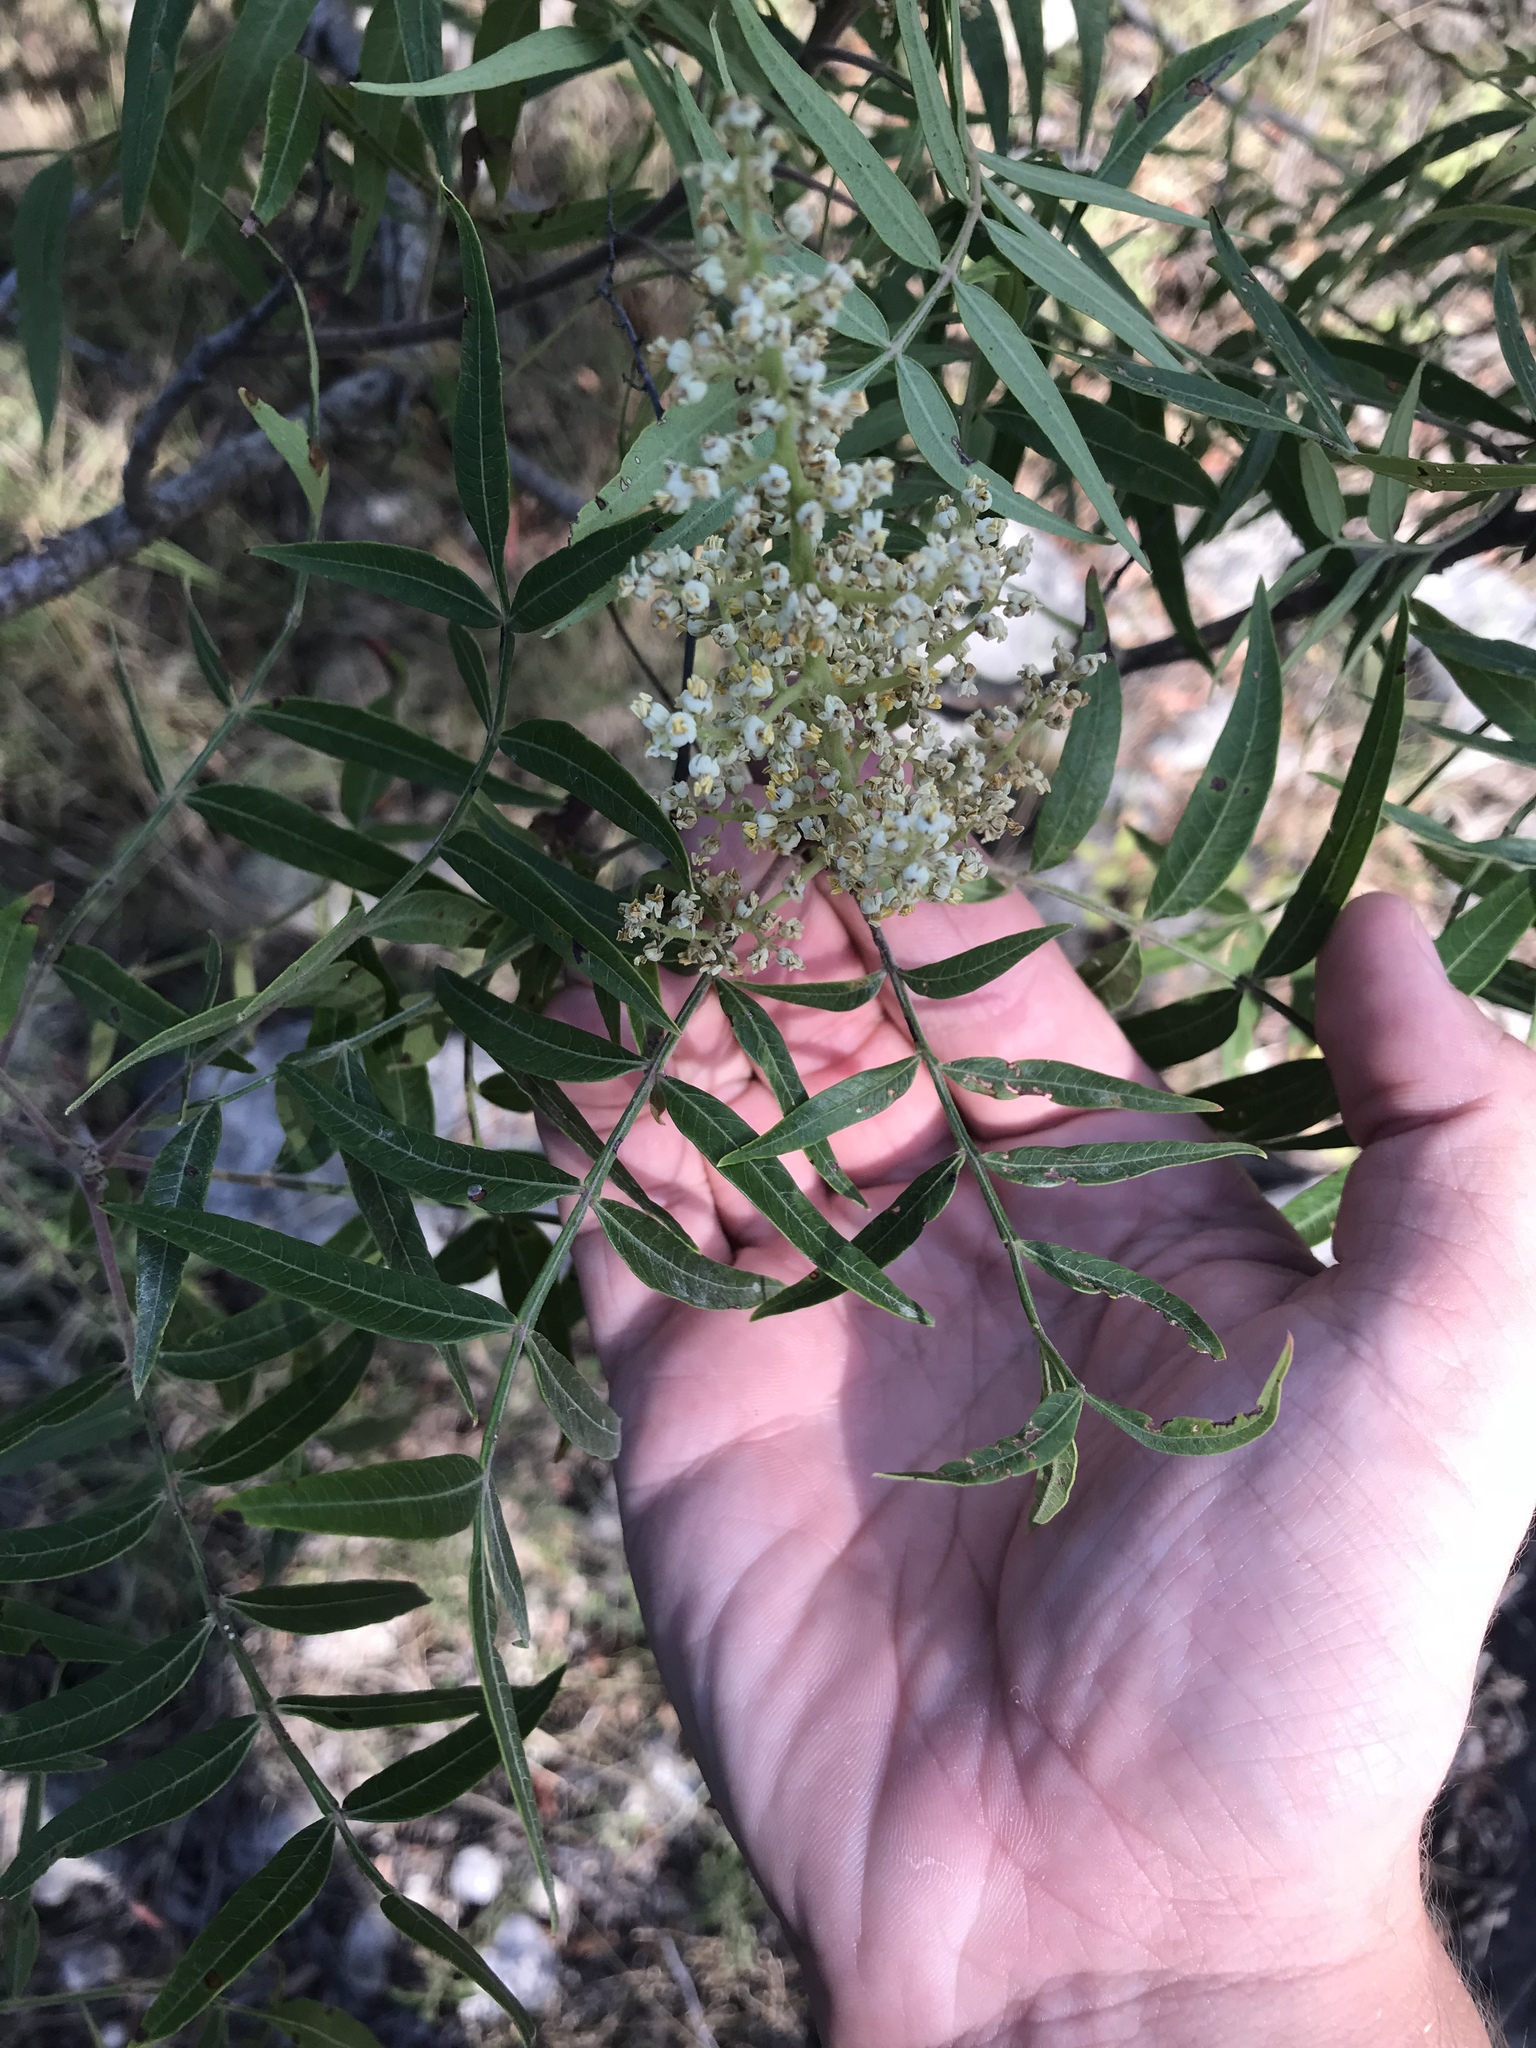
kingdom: Plantae
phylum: Tracheophyta
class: Magnoliopsida
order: Sapindales
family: Anacardiaceae
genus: Rhus
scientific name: Rhus lanceolata
